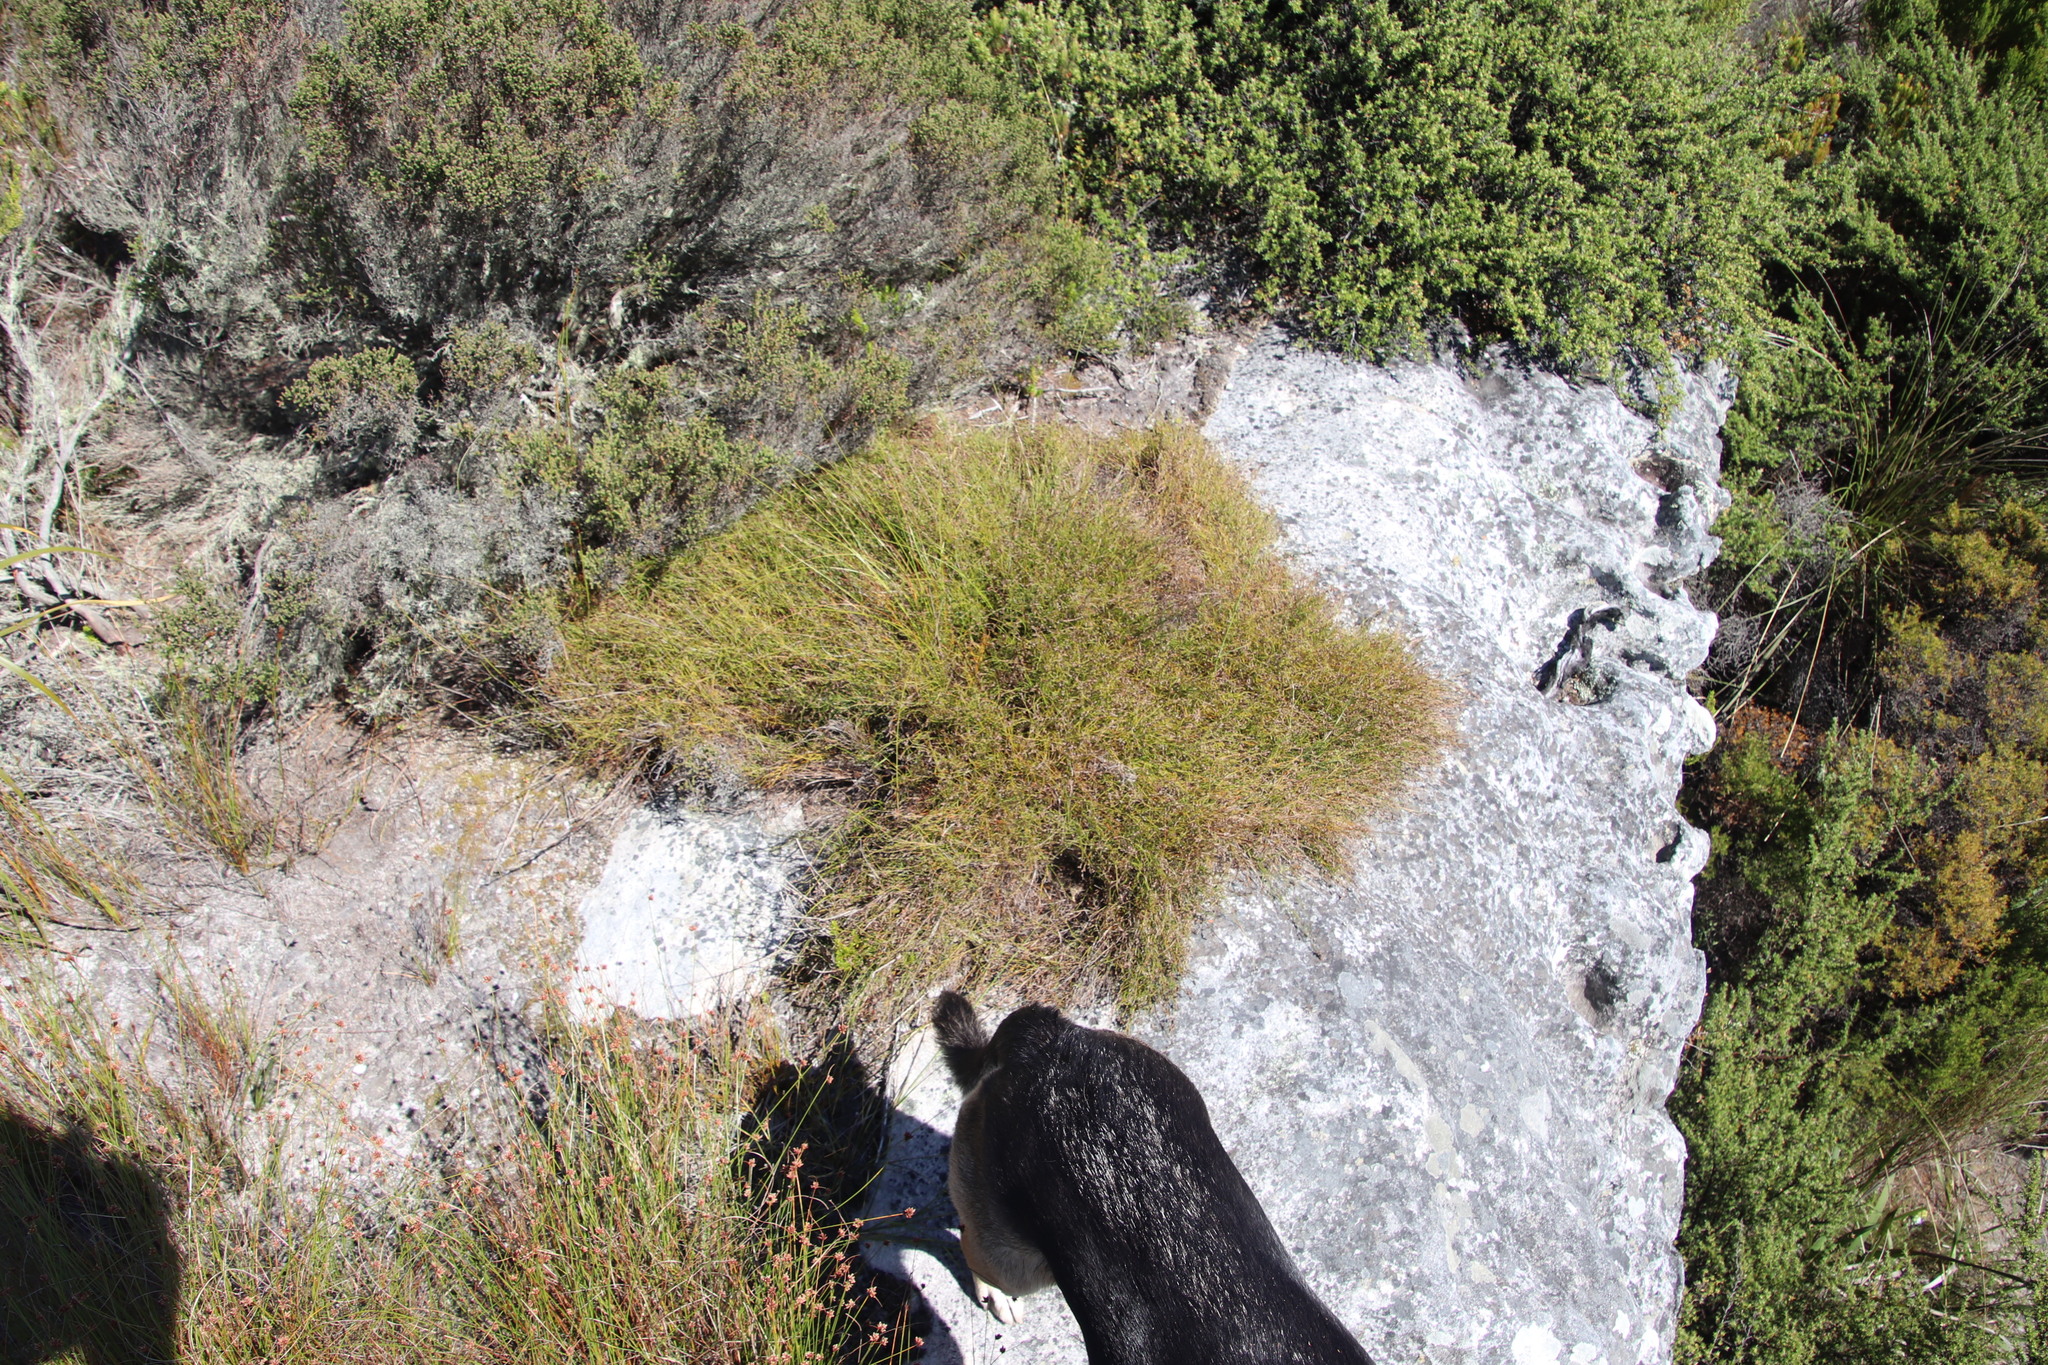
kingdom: Plantae
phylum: Tracheophyta
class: Liliopsida
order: Poales
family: Restionaceae
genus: Restio
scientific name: Restio perplexus
